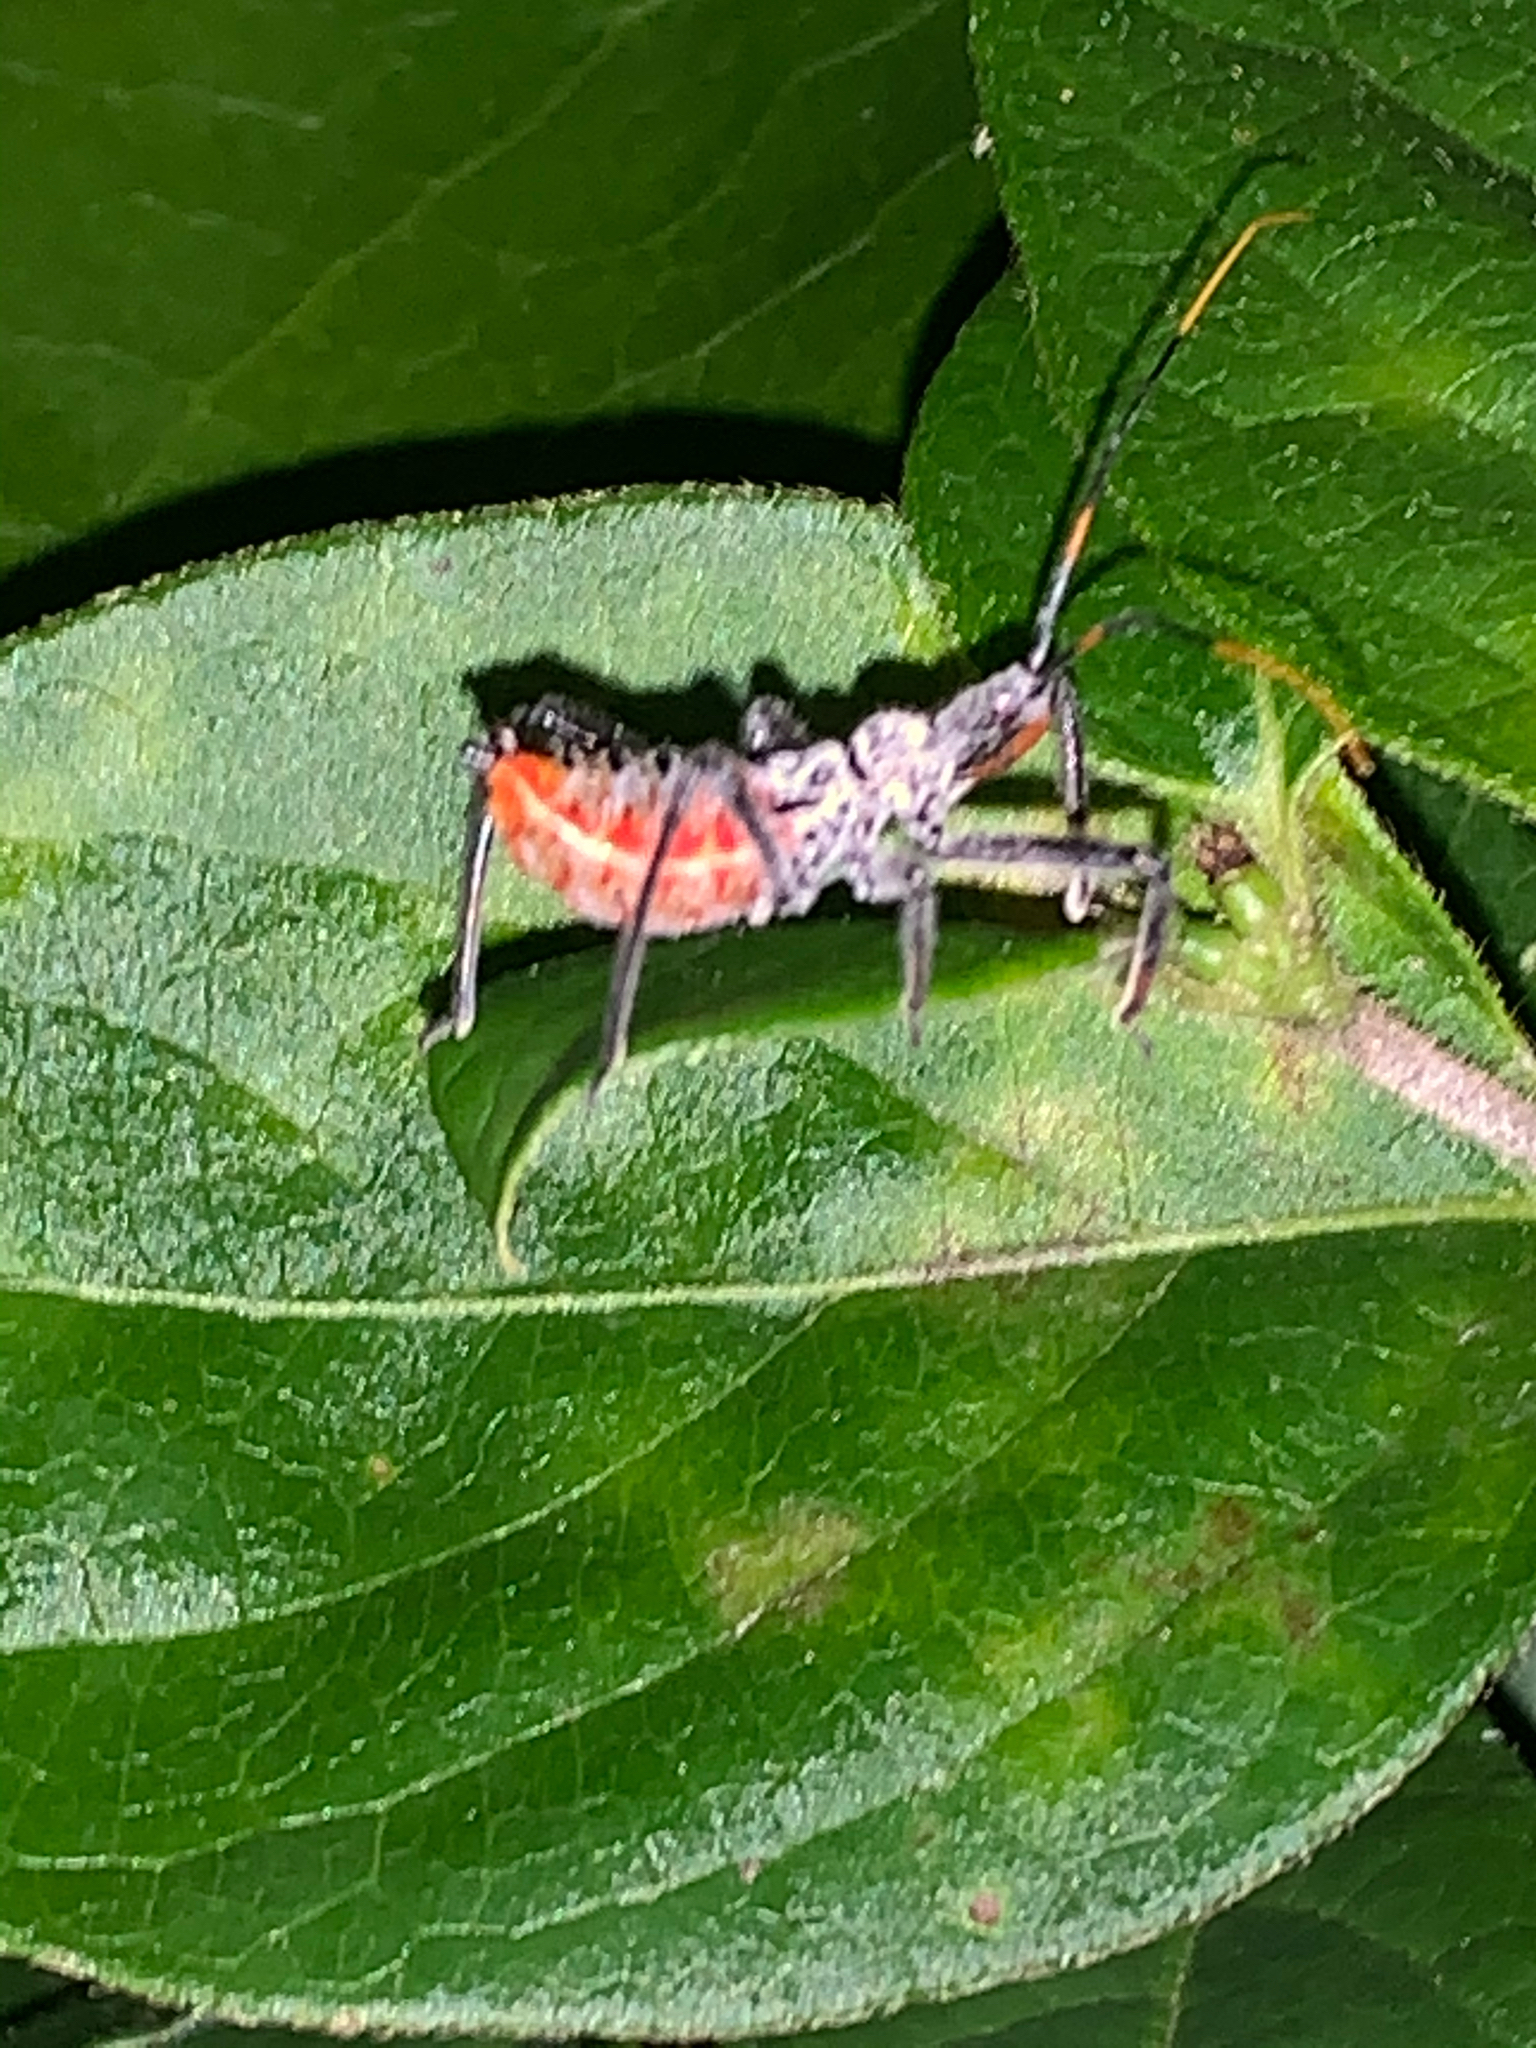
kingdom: Animalia
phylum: Arthropoda
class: Insecta
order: Hemiptera
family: Reduviidae
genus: Arilus
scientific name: Arilus cristatus
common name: North american wheel bug
